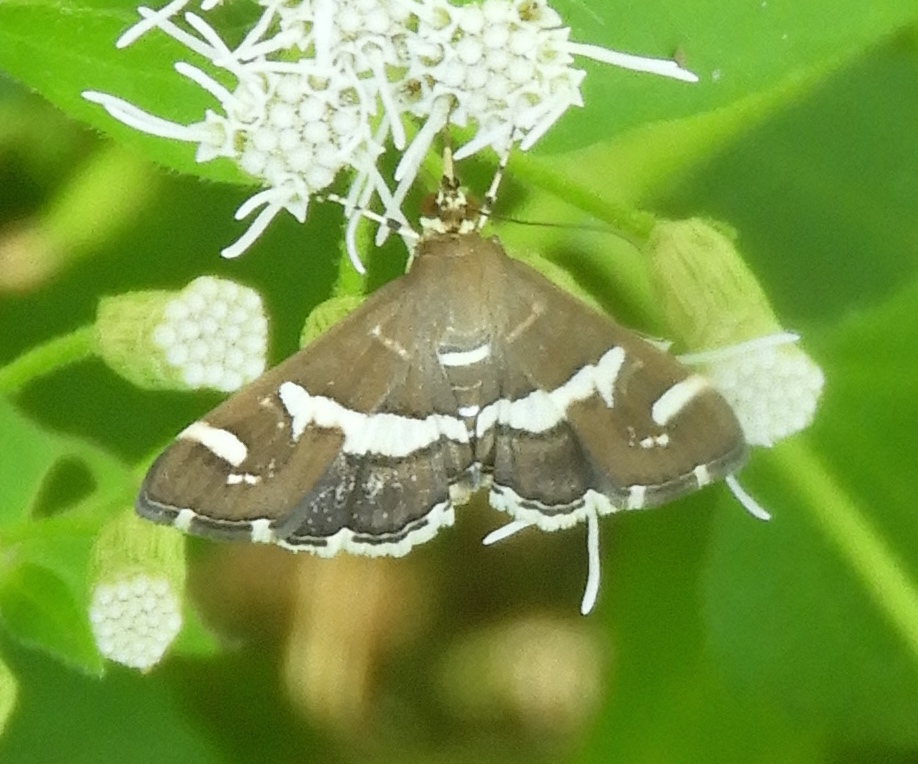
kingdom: Animalia
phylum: Arthropoda
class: Insecta
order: Lepidoptera
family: Crambidae
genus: Spoladea
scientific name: Spoladea recurvalis
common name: Beet webworm moth
